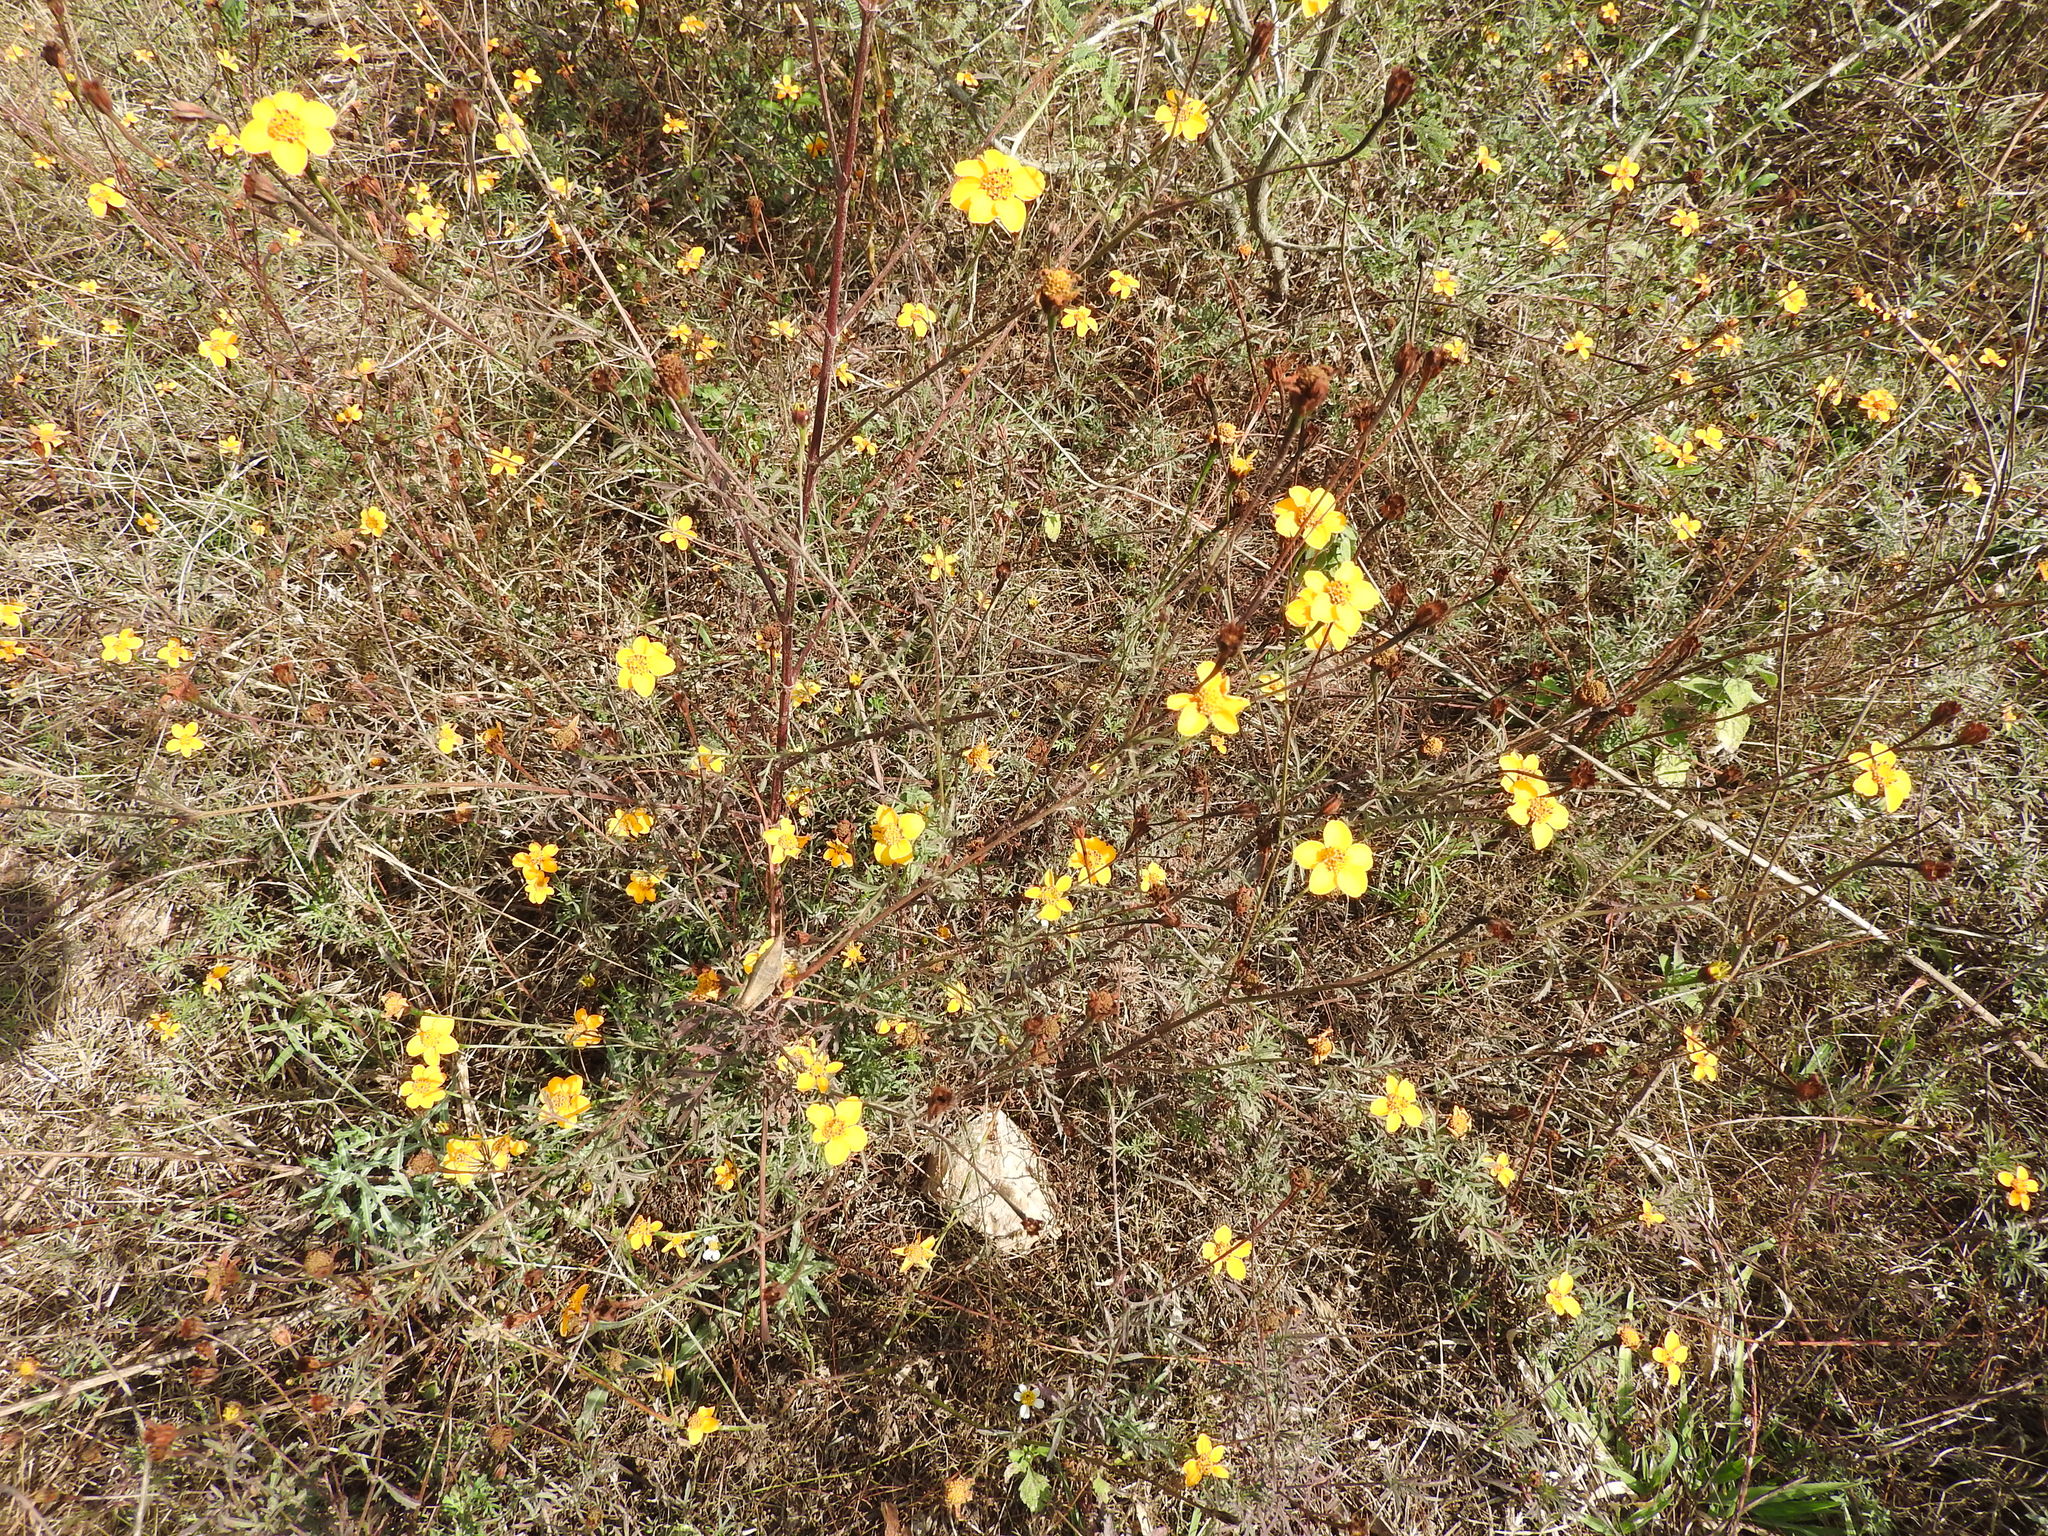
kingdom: Plantae
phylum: Tracheophyta
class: Magnoliopsida
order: Asterales
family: Asteraceae
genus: Dyssodia
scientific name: Dyssodia tagetiflora
